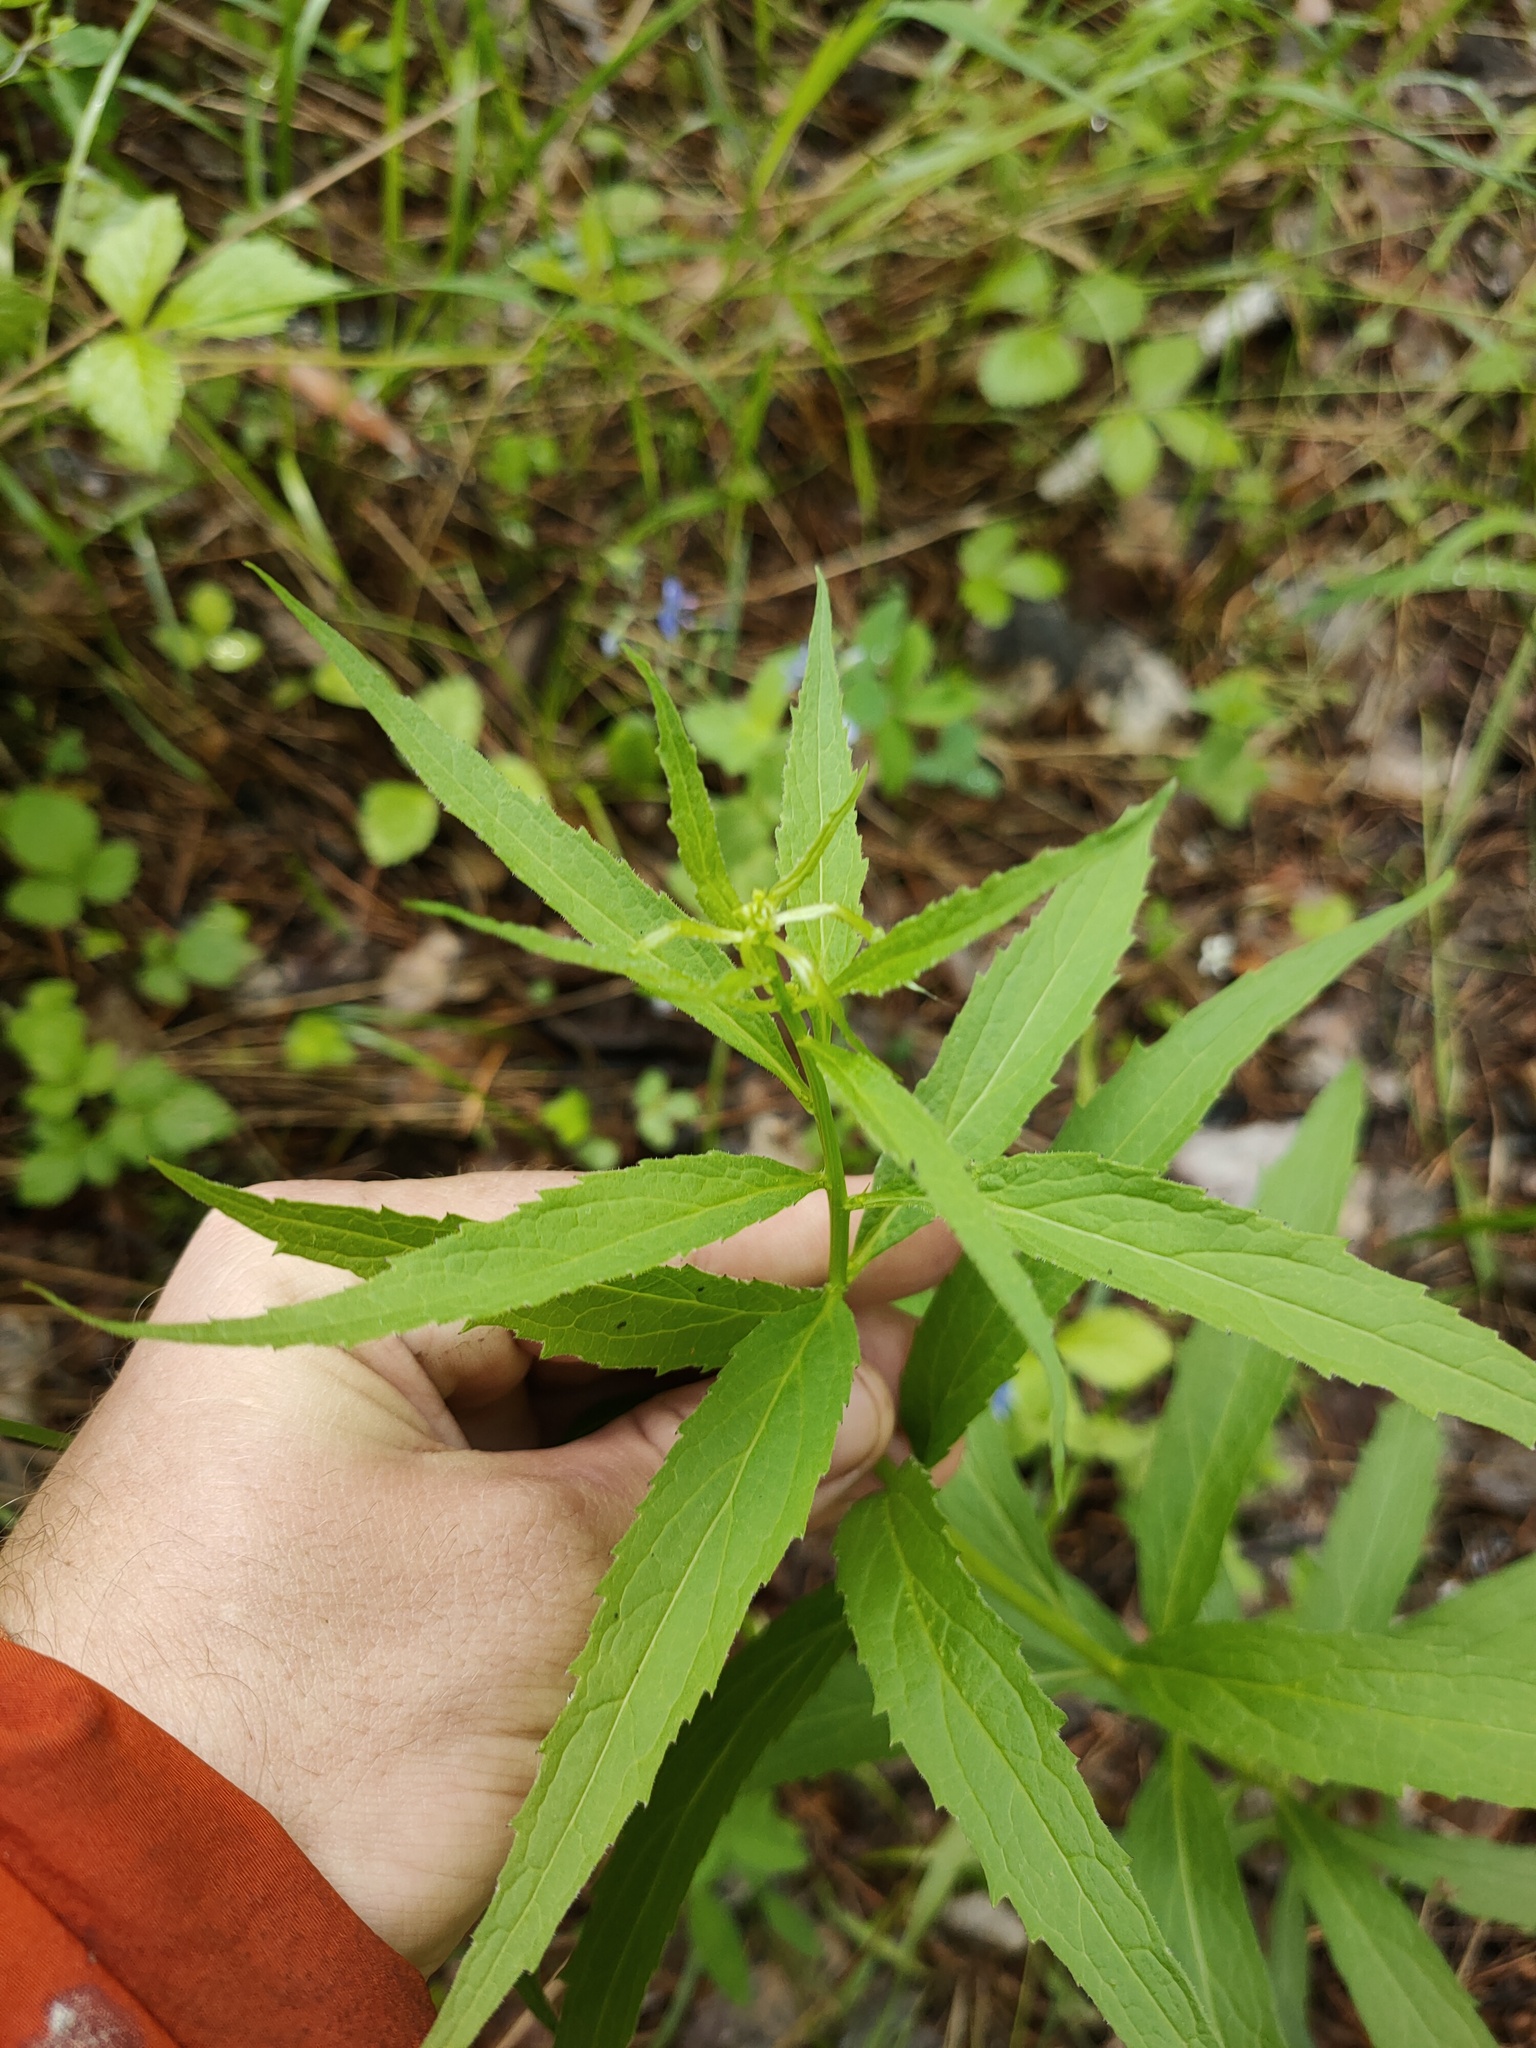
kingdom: Plantae
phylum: Tracheophyta
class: Magnoliopsida
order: Asterales
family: Campanulaceae
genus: Adenophora
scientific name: Adenophora liliifolia
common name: Lilyleaf ladybells
